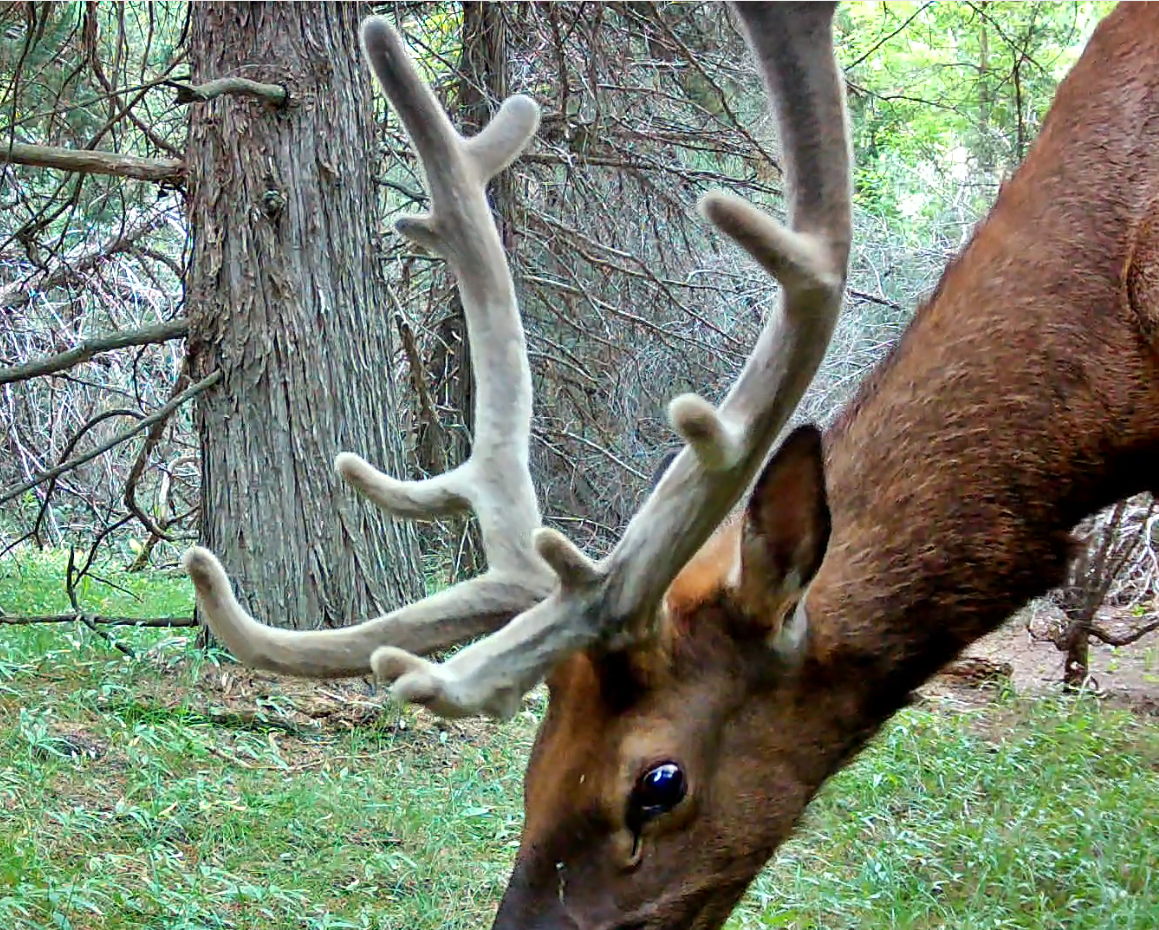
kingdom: Animalia
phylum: Chordata
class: Mammalia
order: Artiodactyla
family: Cervidae
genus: Cervus
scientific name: Cervus elaphus
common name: Red deer
